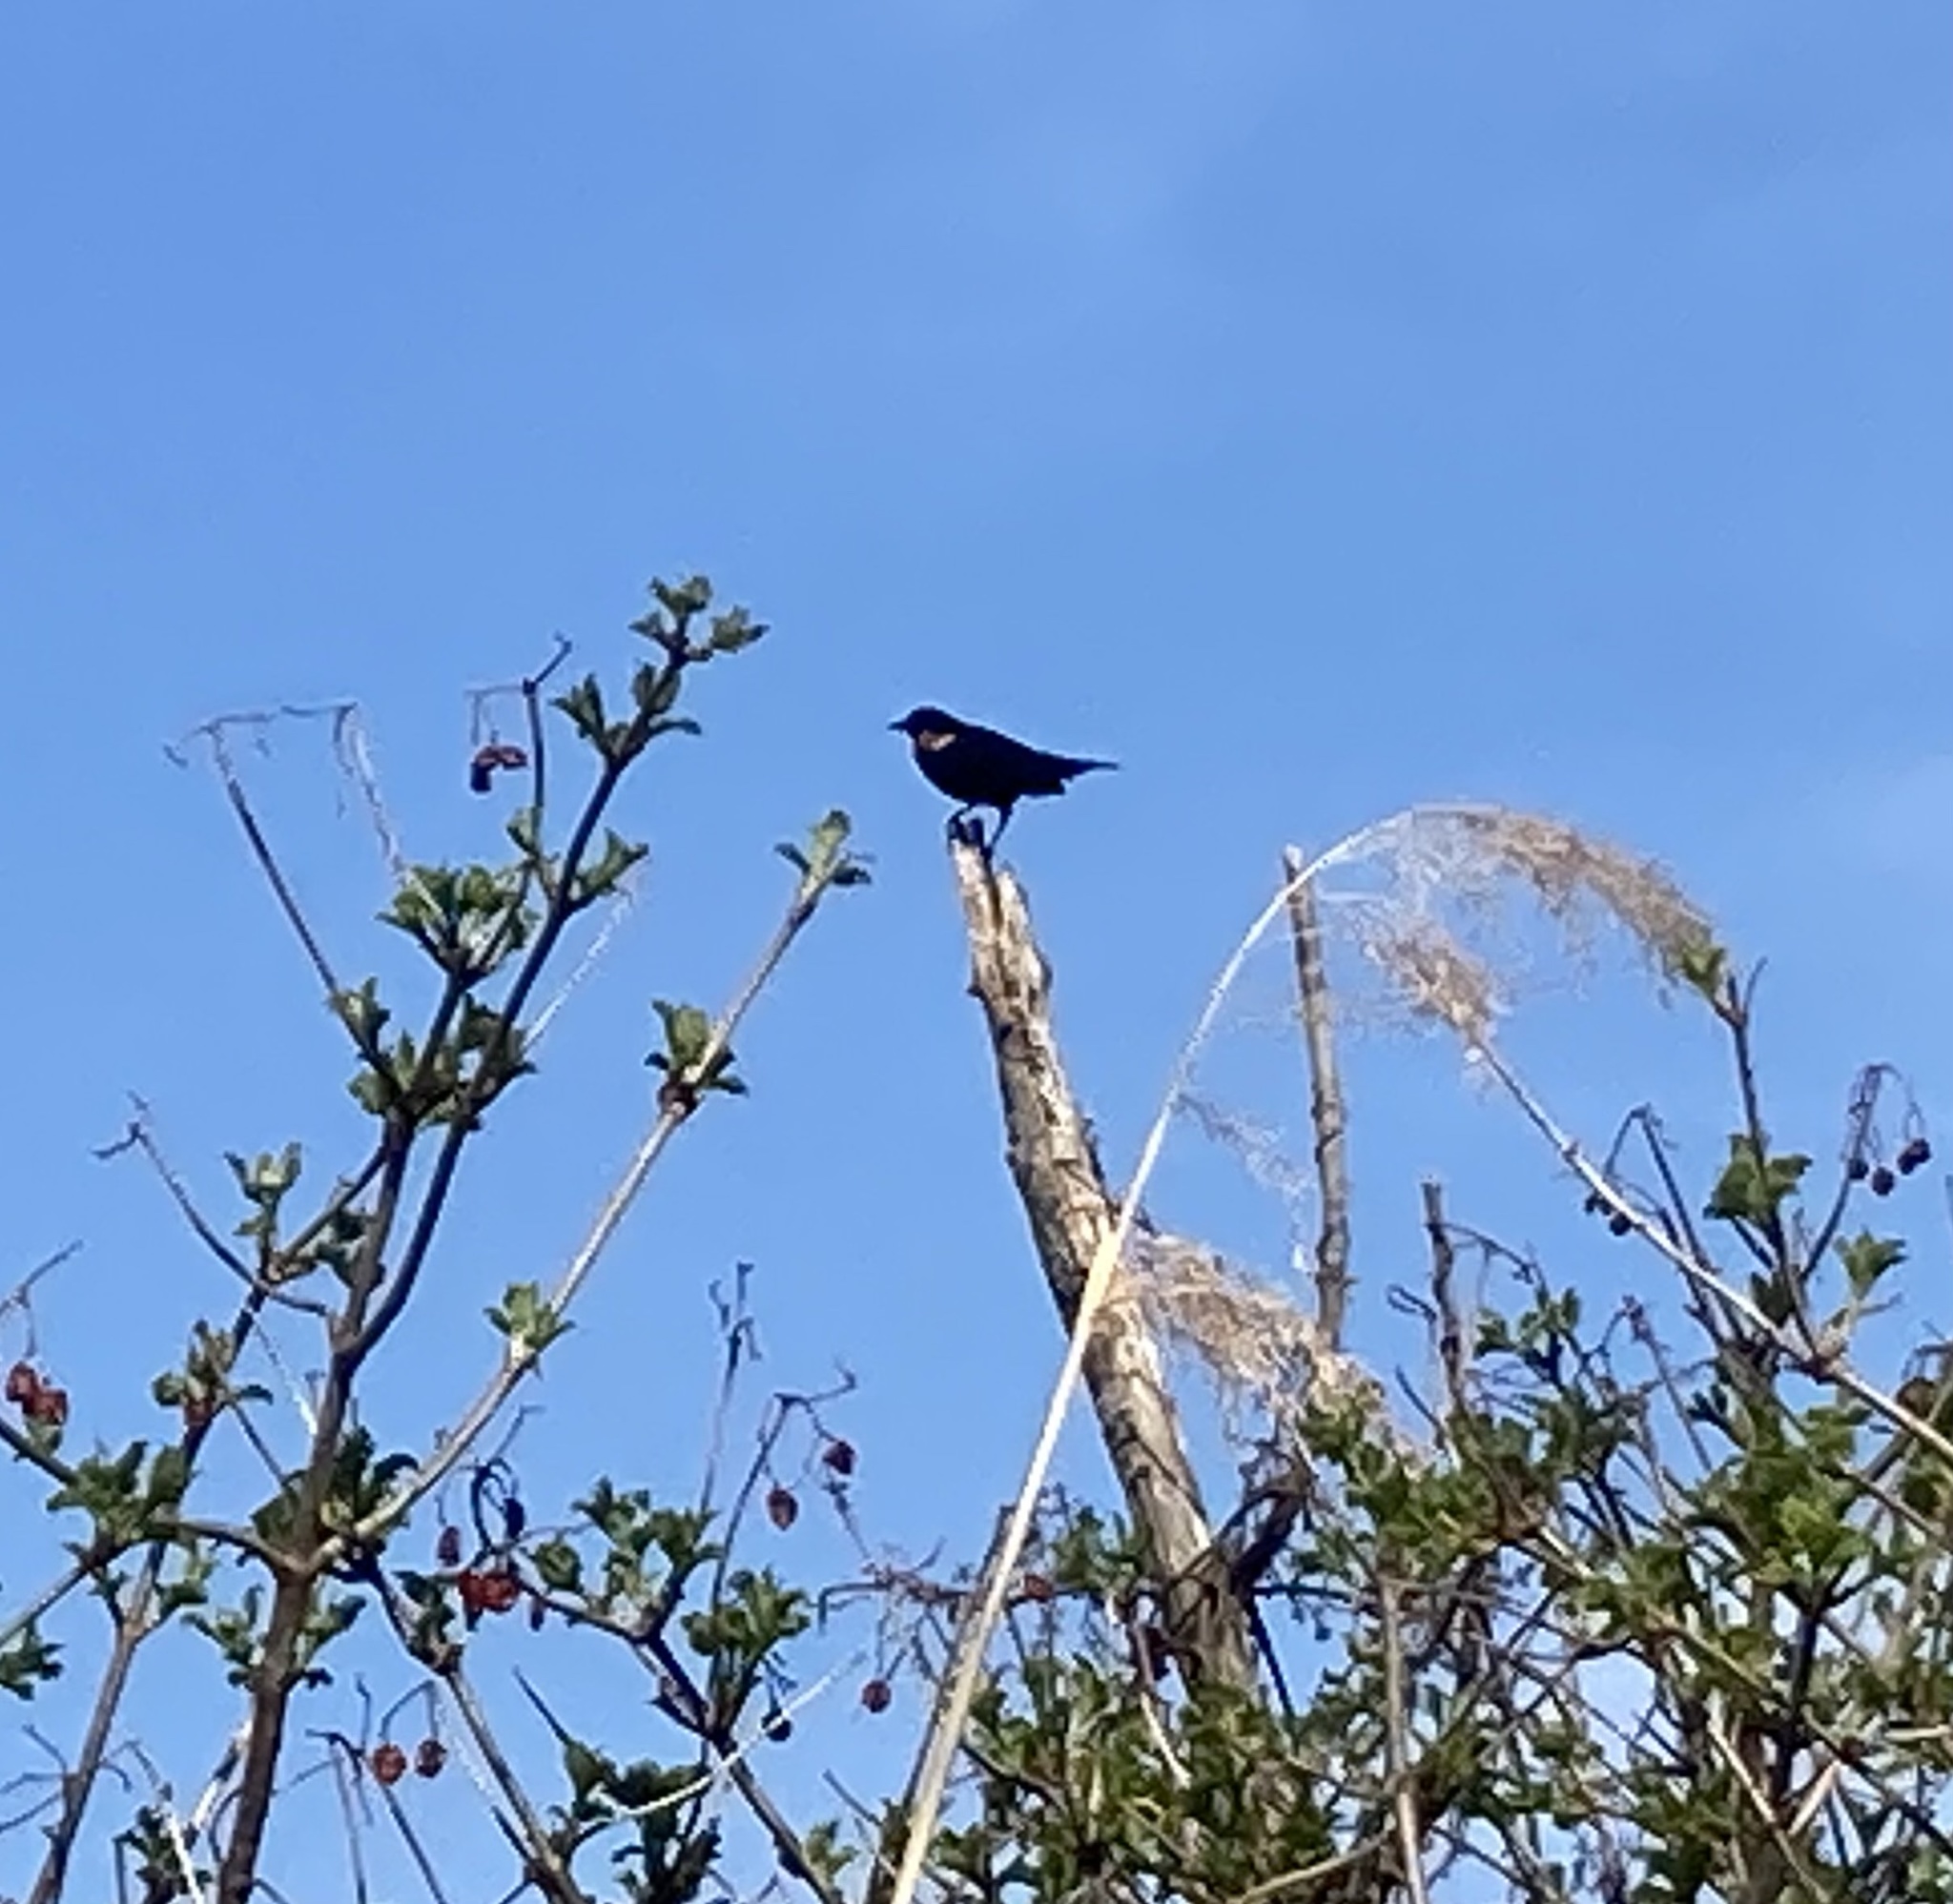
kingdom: Animalia
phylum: Chordata
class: Aves
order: Passeriformes
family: Icteridae
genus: Agelaius
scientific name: Agelaius phoeniceus
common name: Red-winged blackbird
